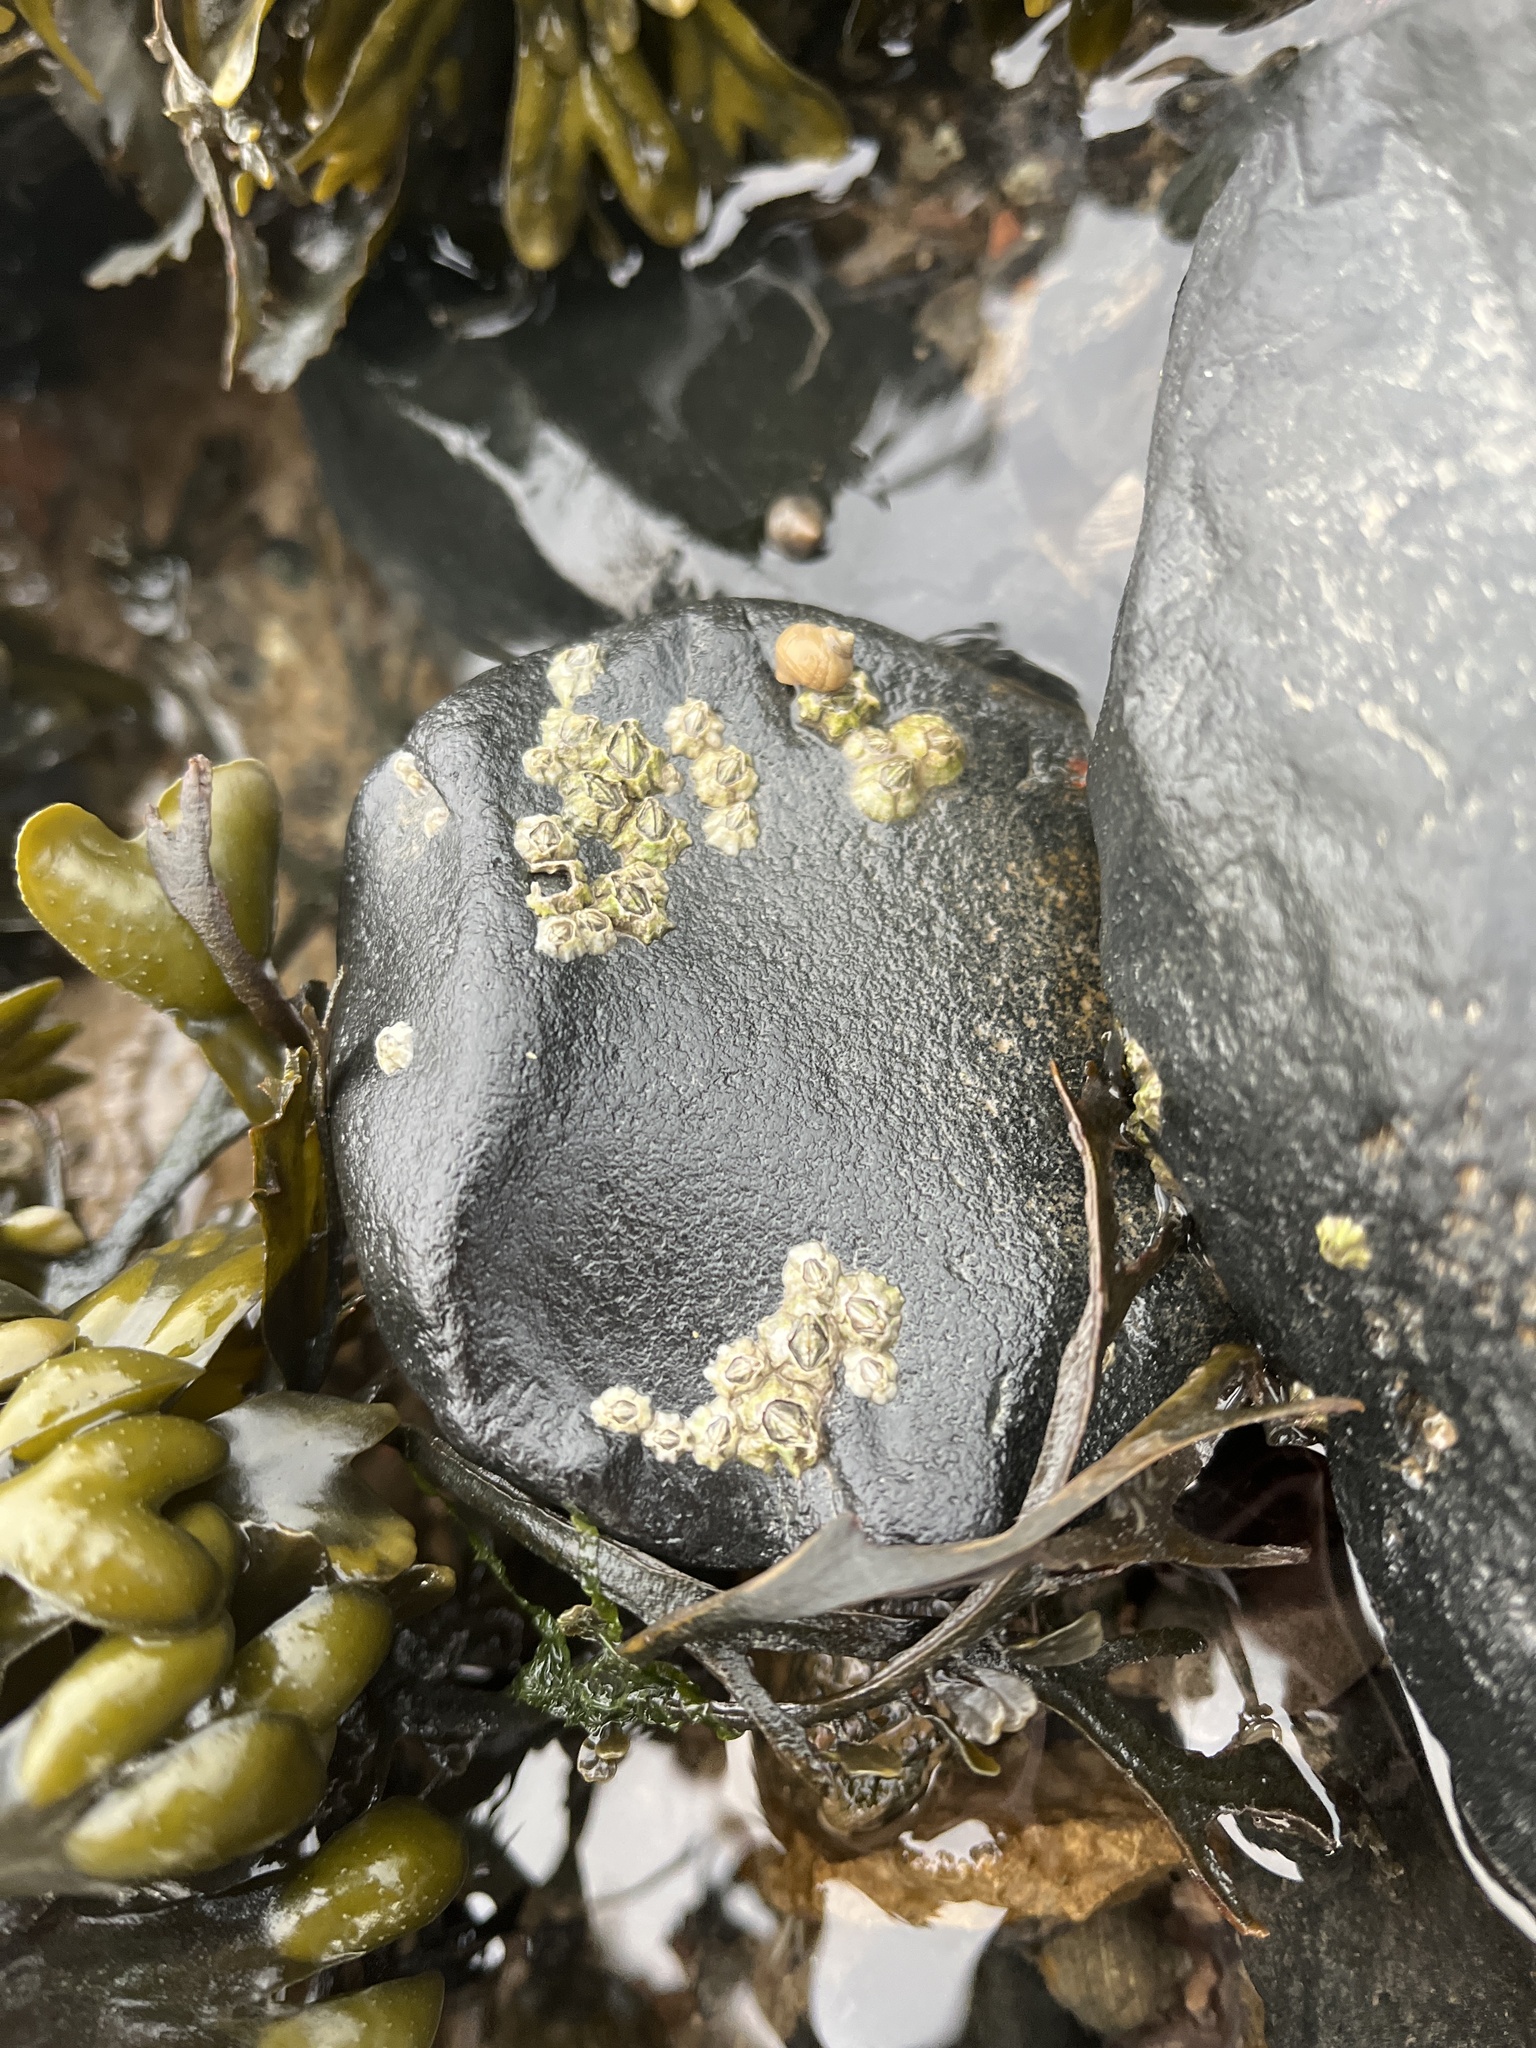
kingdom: Animalia
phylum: Arthropoda
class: Maxillopoda
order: Sessilia
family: Archaeobalanidae
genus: Semibalanus
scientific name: Semibalanus balanoides
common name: Acorn barnacle
